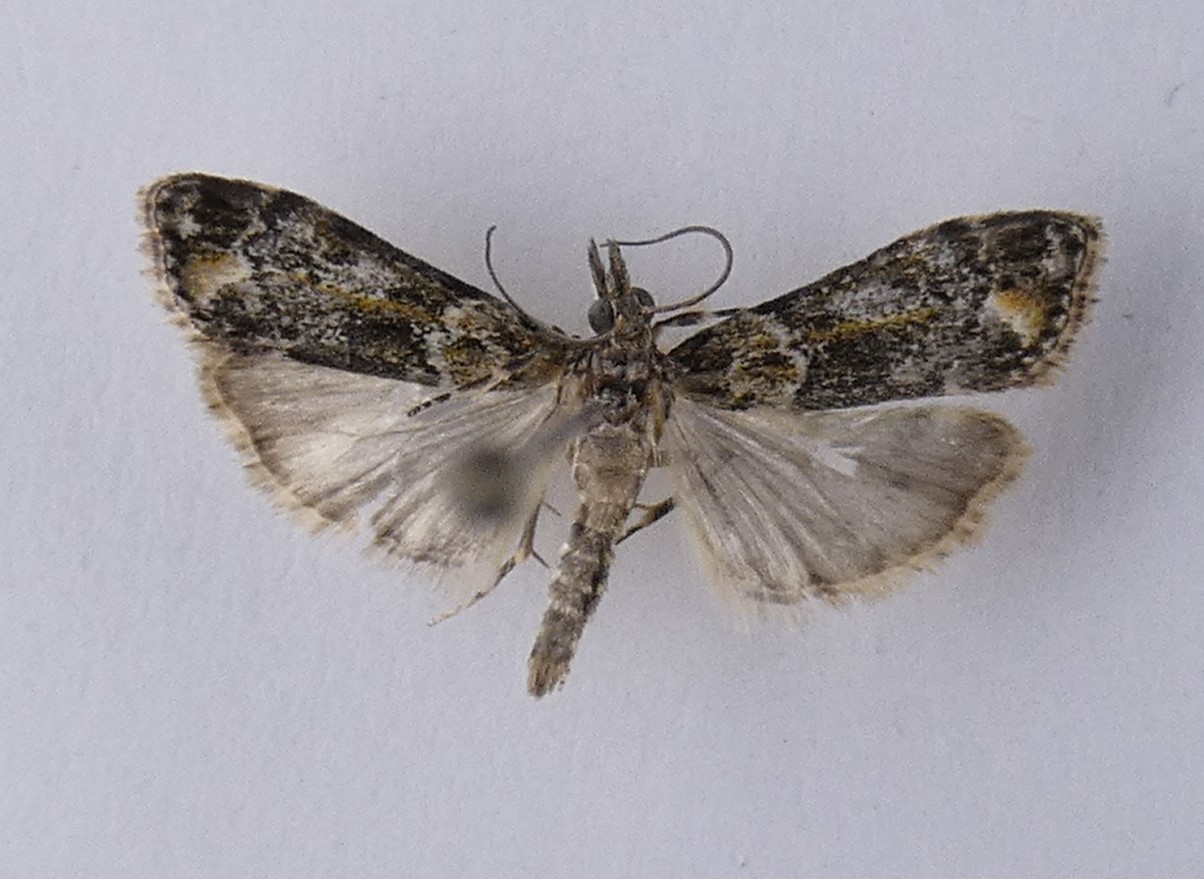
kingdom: Animalia
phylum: Arthropoda
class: Insecta
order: Lepidoptera
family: Crambidae
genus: Eudonia
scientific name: Eudonia minualis
